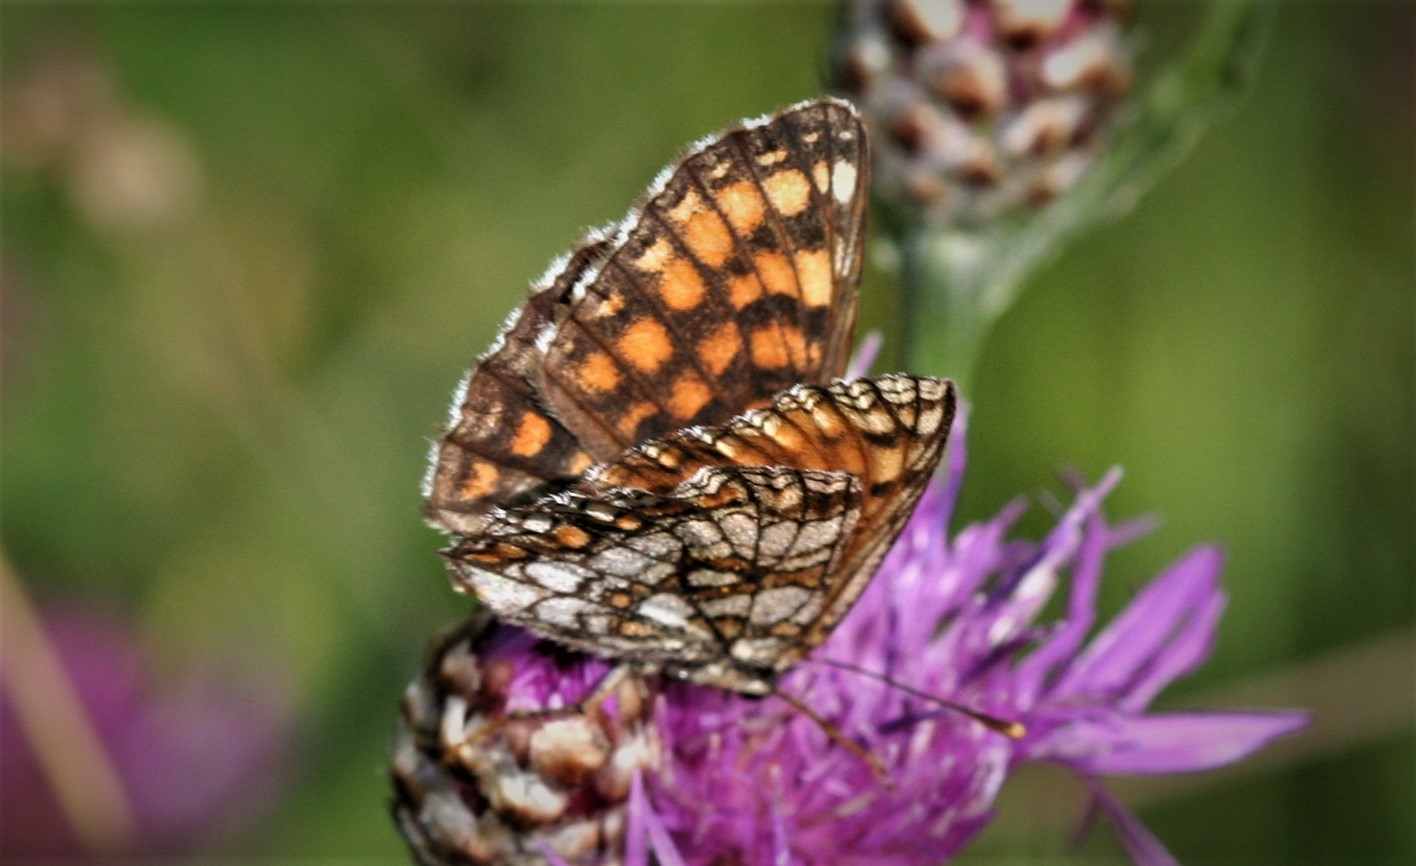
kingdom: Animalia
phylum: Arthropoda
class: Insecta
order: Lepidoptera
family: Nymphalidae
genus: Melitaea
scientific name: Melitaea athalia
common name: Heath fritillary
